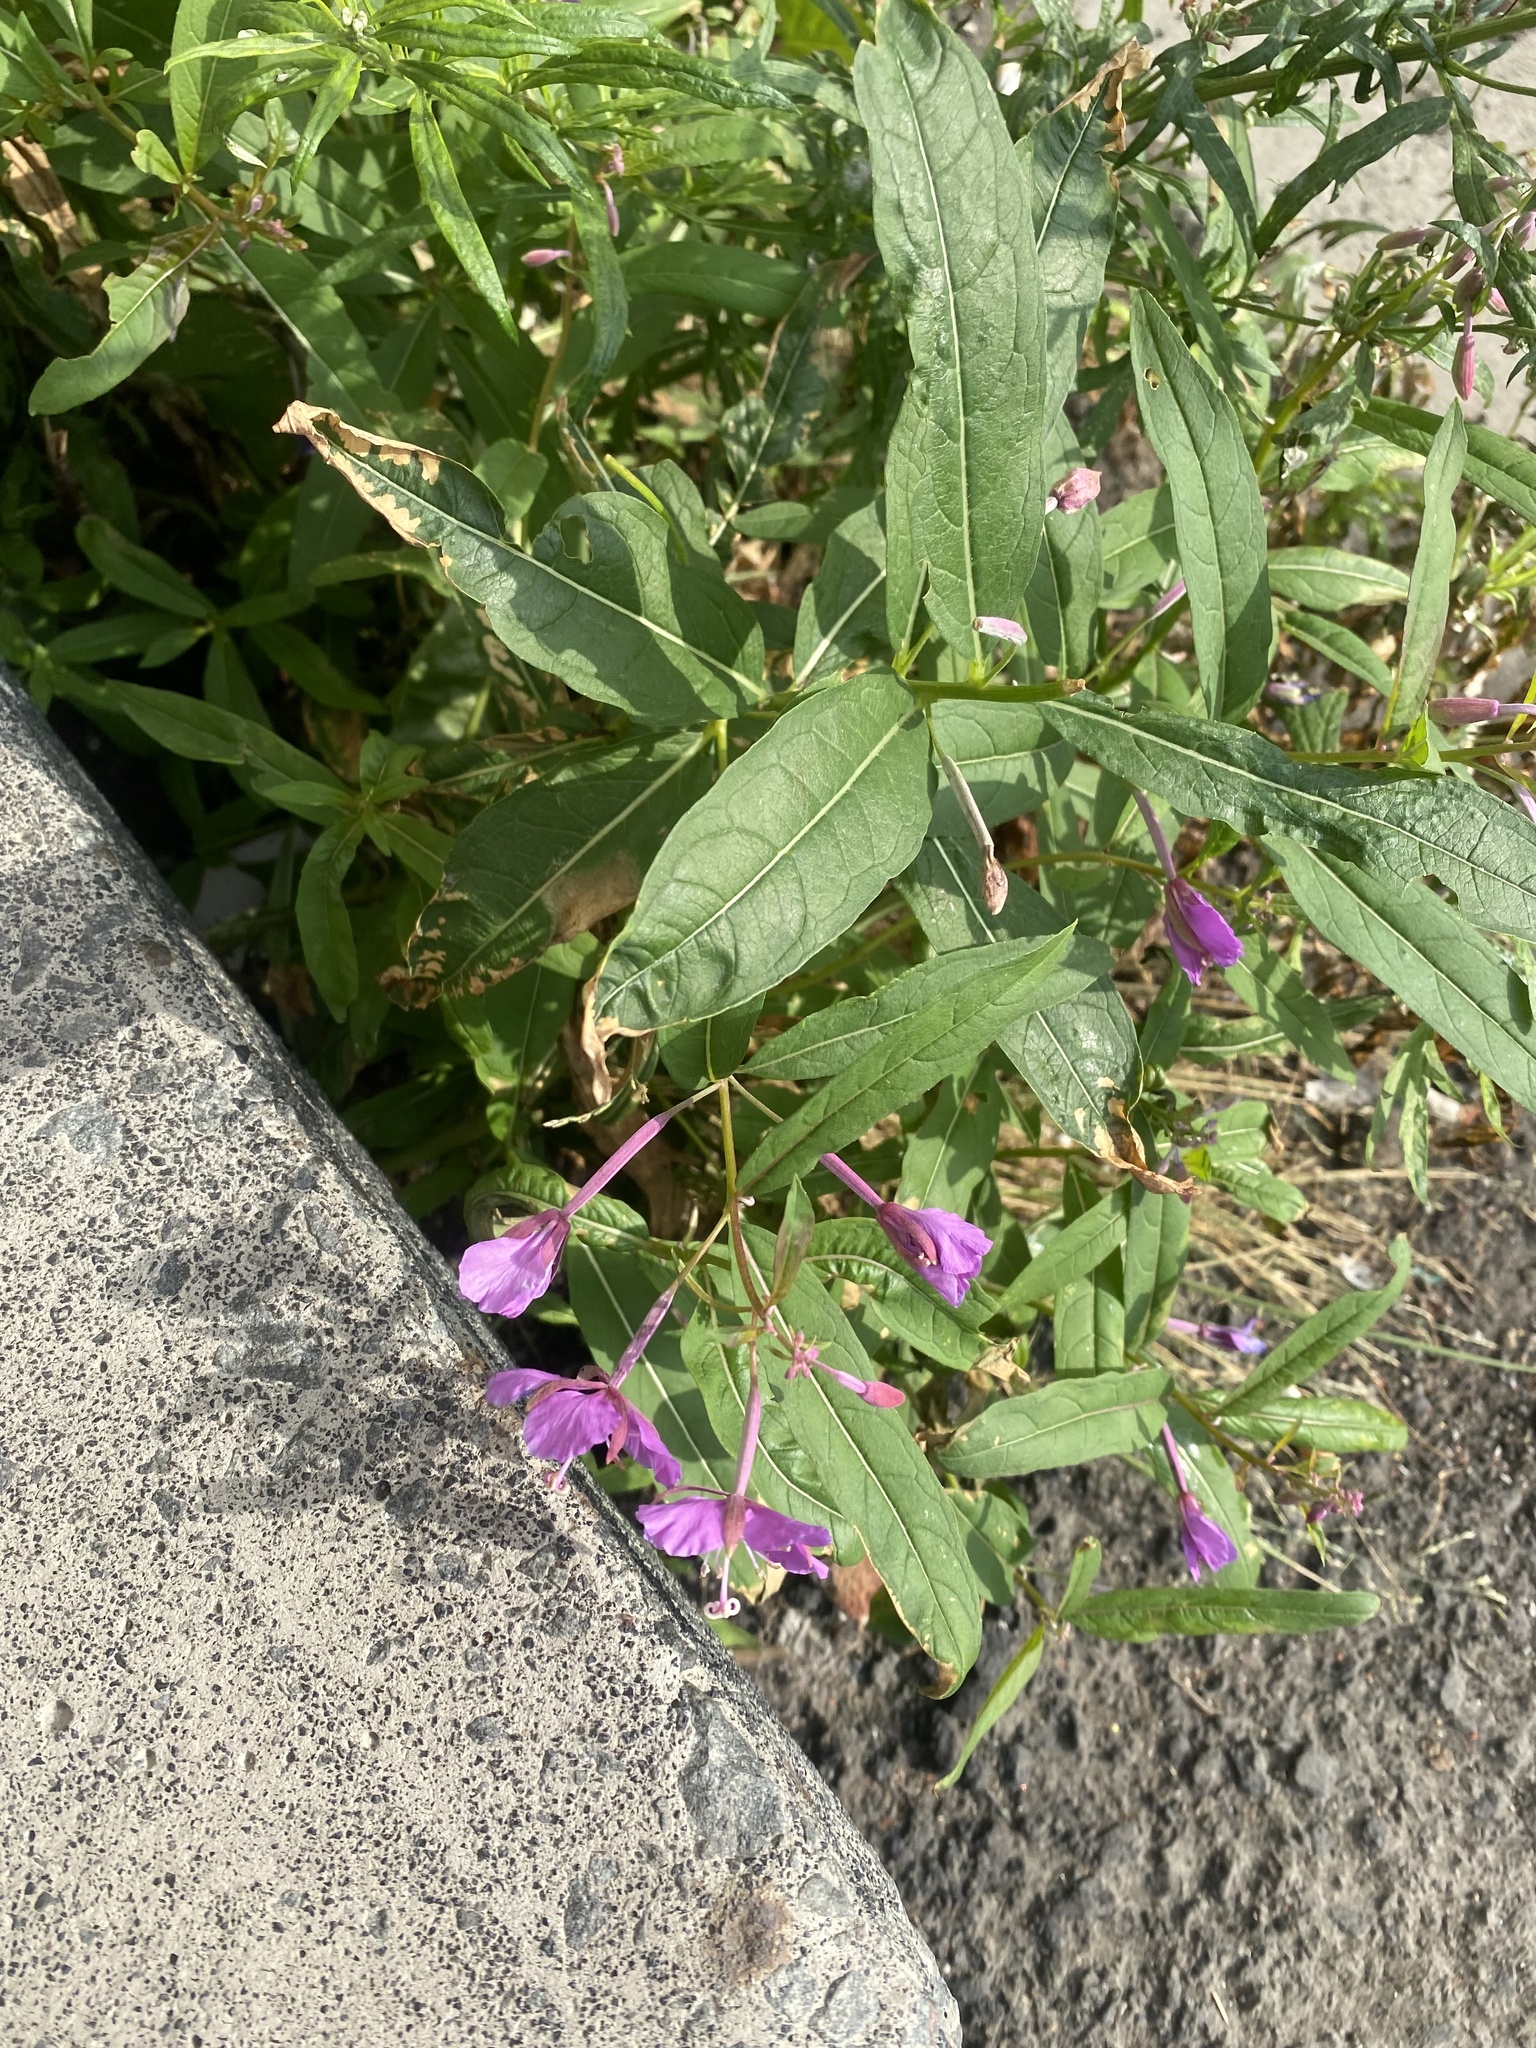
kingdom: Plantae
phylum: Tracheophyta
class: Magnoliopsida
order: Myrtales
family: Onagraceae
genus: Chamaenerion
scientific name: Chamaenerion angustifolium
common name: Fireweed
